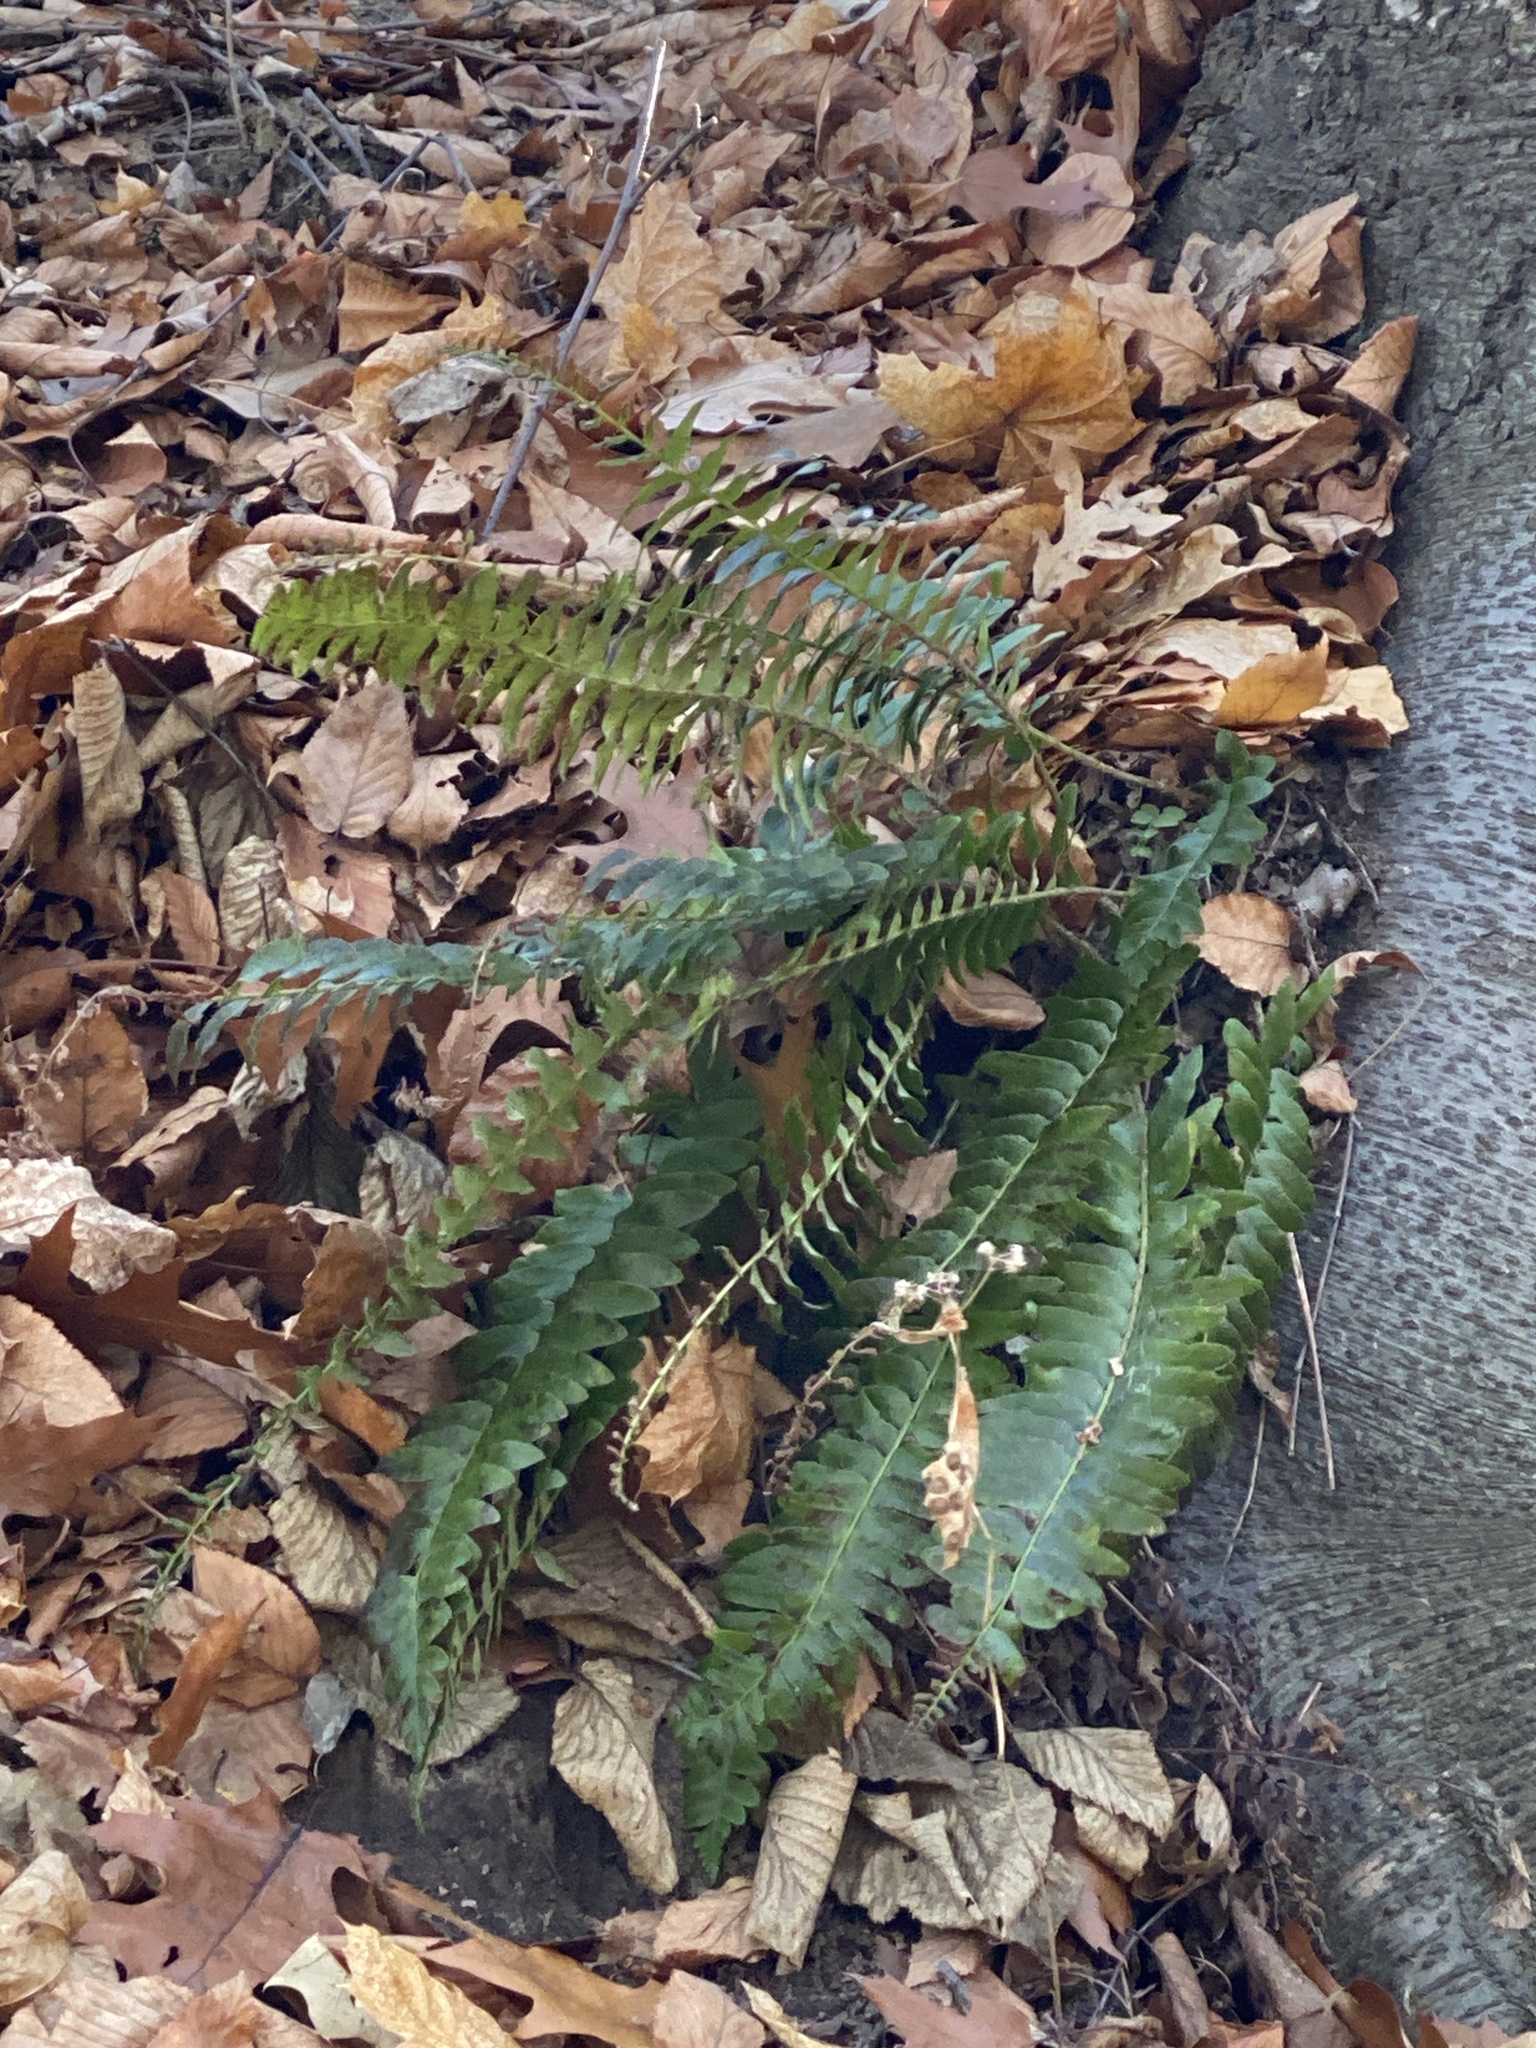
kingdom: Plantae
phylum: Tracheophyta
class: Polypodiopsida
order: Polypodiales
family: Dryopteridaceae
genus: Polystichum
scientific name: Polystichum acrostichoides
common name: Christmas fern
